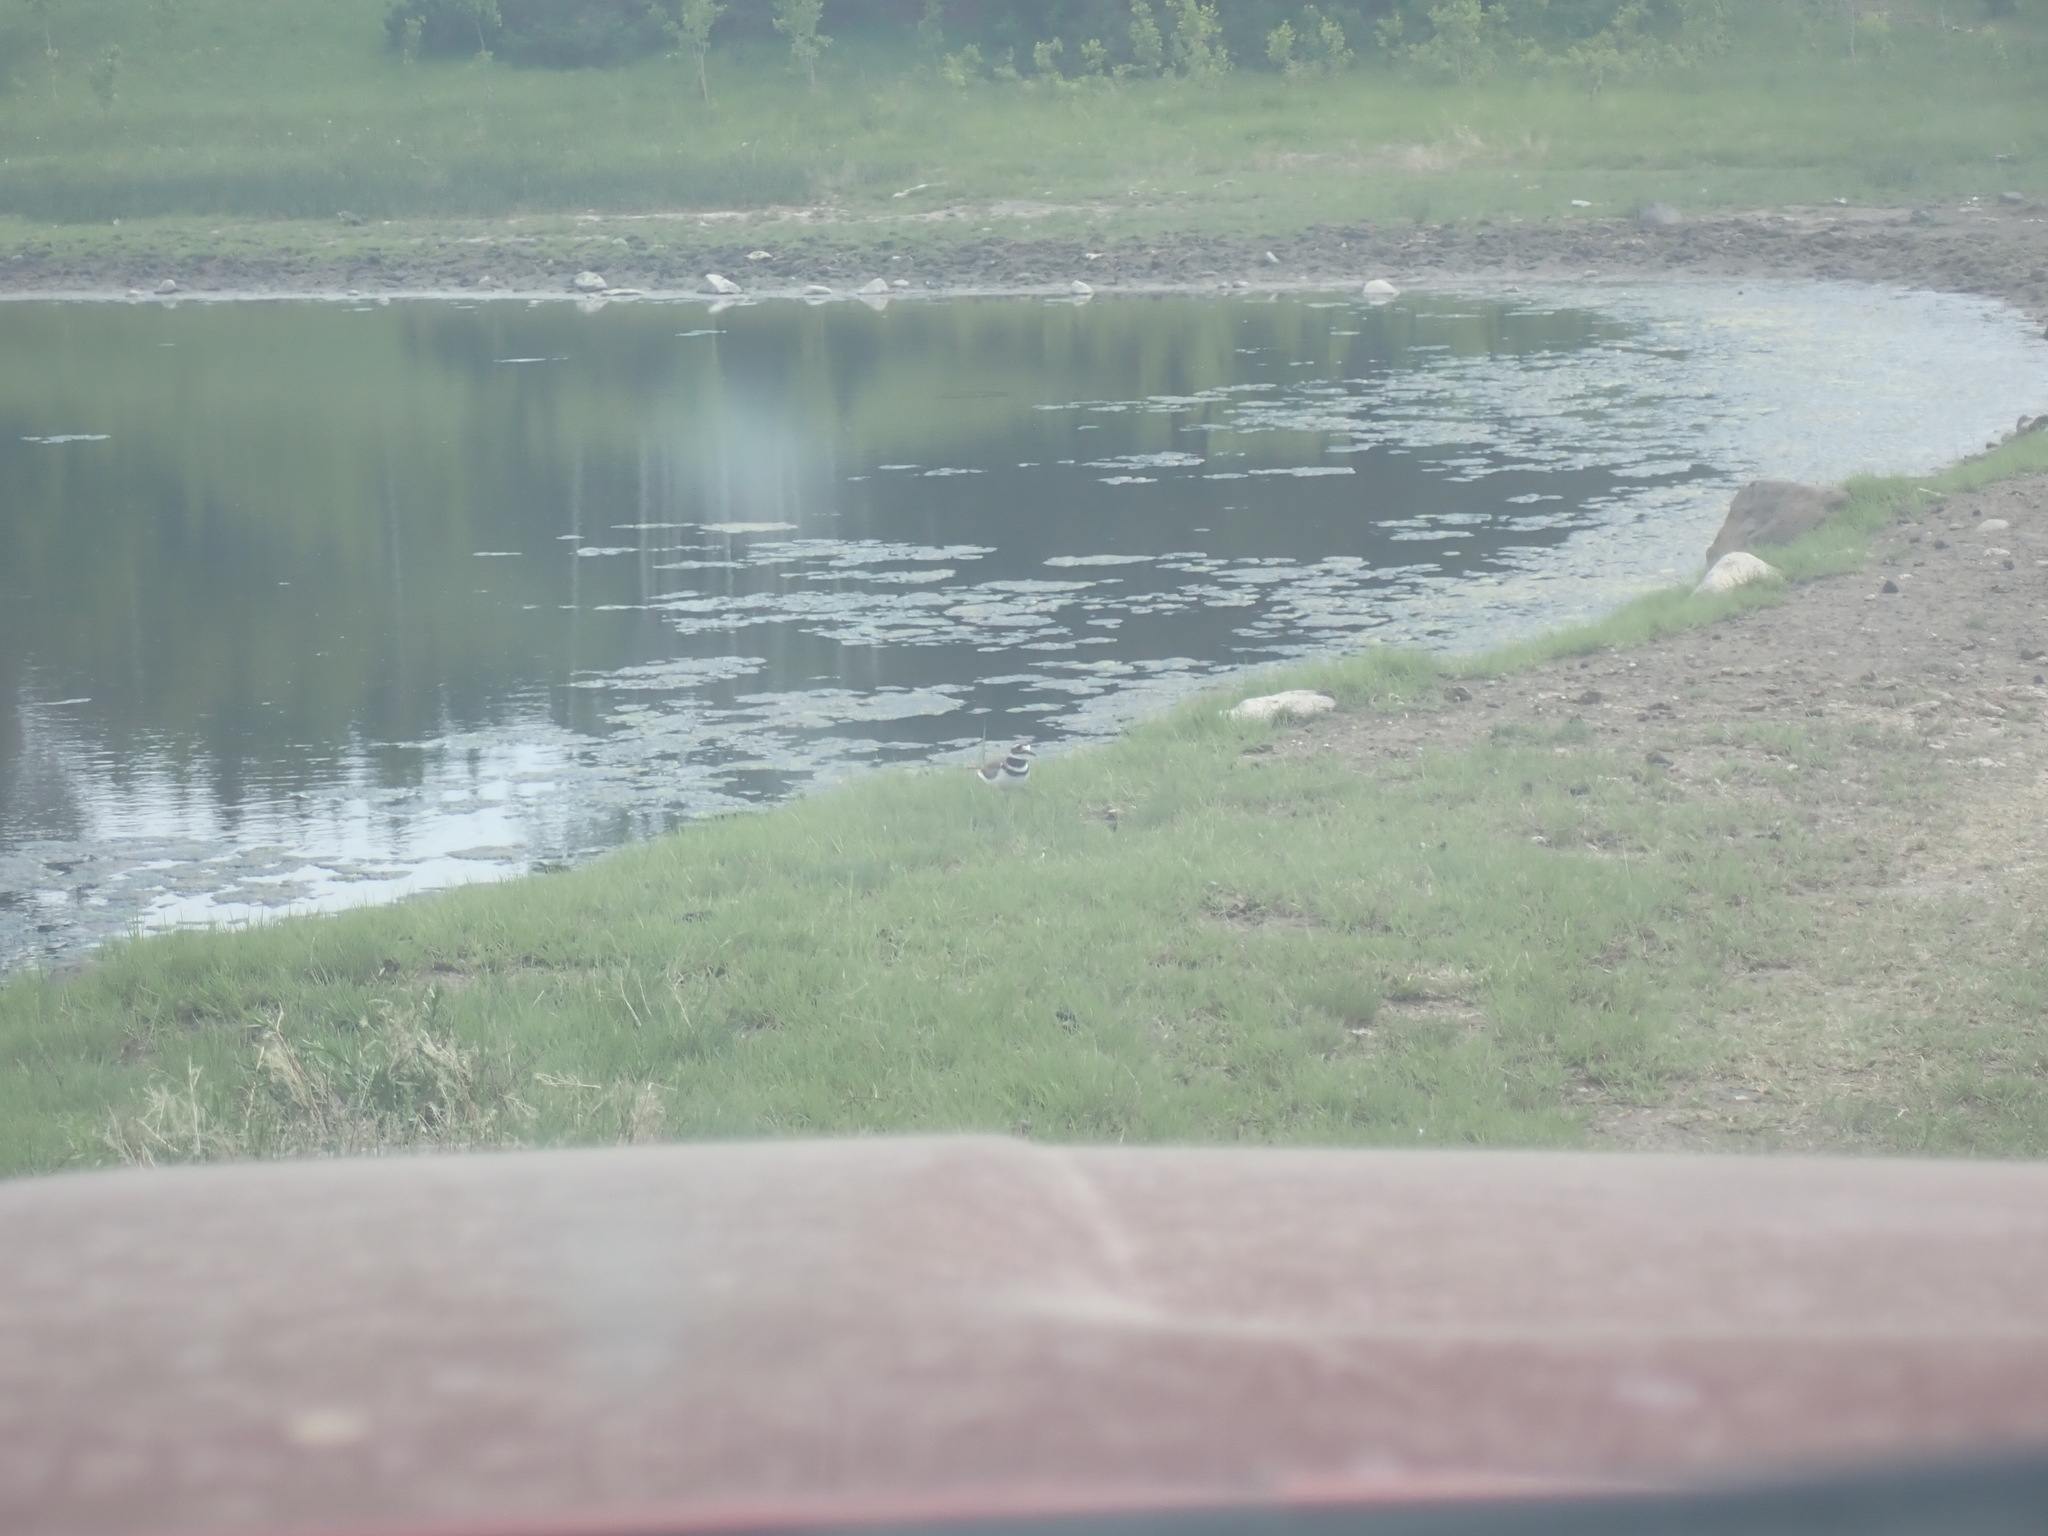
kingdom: Animalia
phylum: Chordata
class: Aves
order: Charadriiformes
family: Charadriidae
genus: Charadrius
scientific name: Charadrius vociferus
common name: Killdeer
